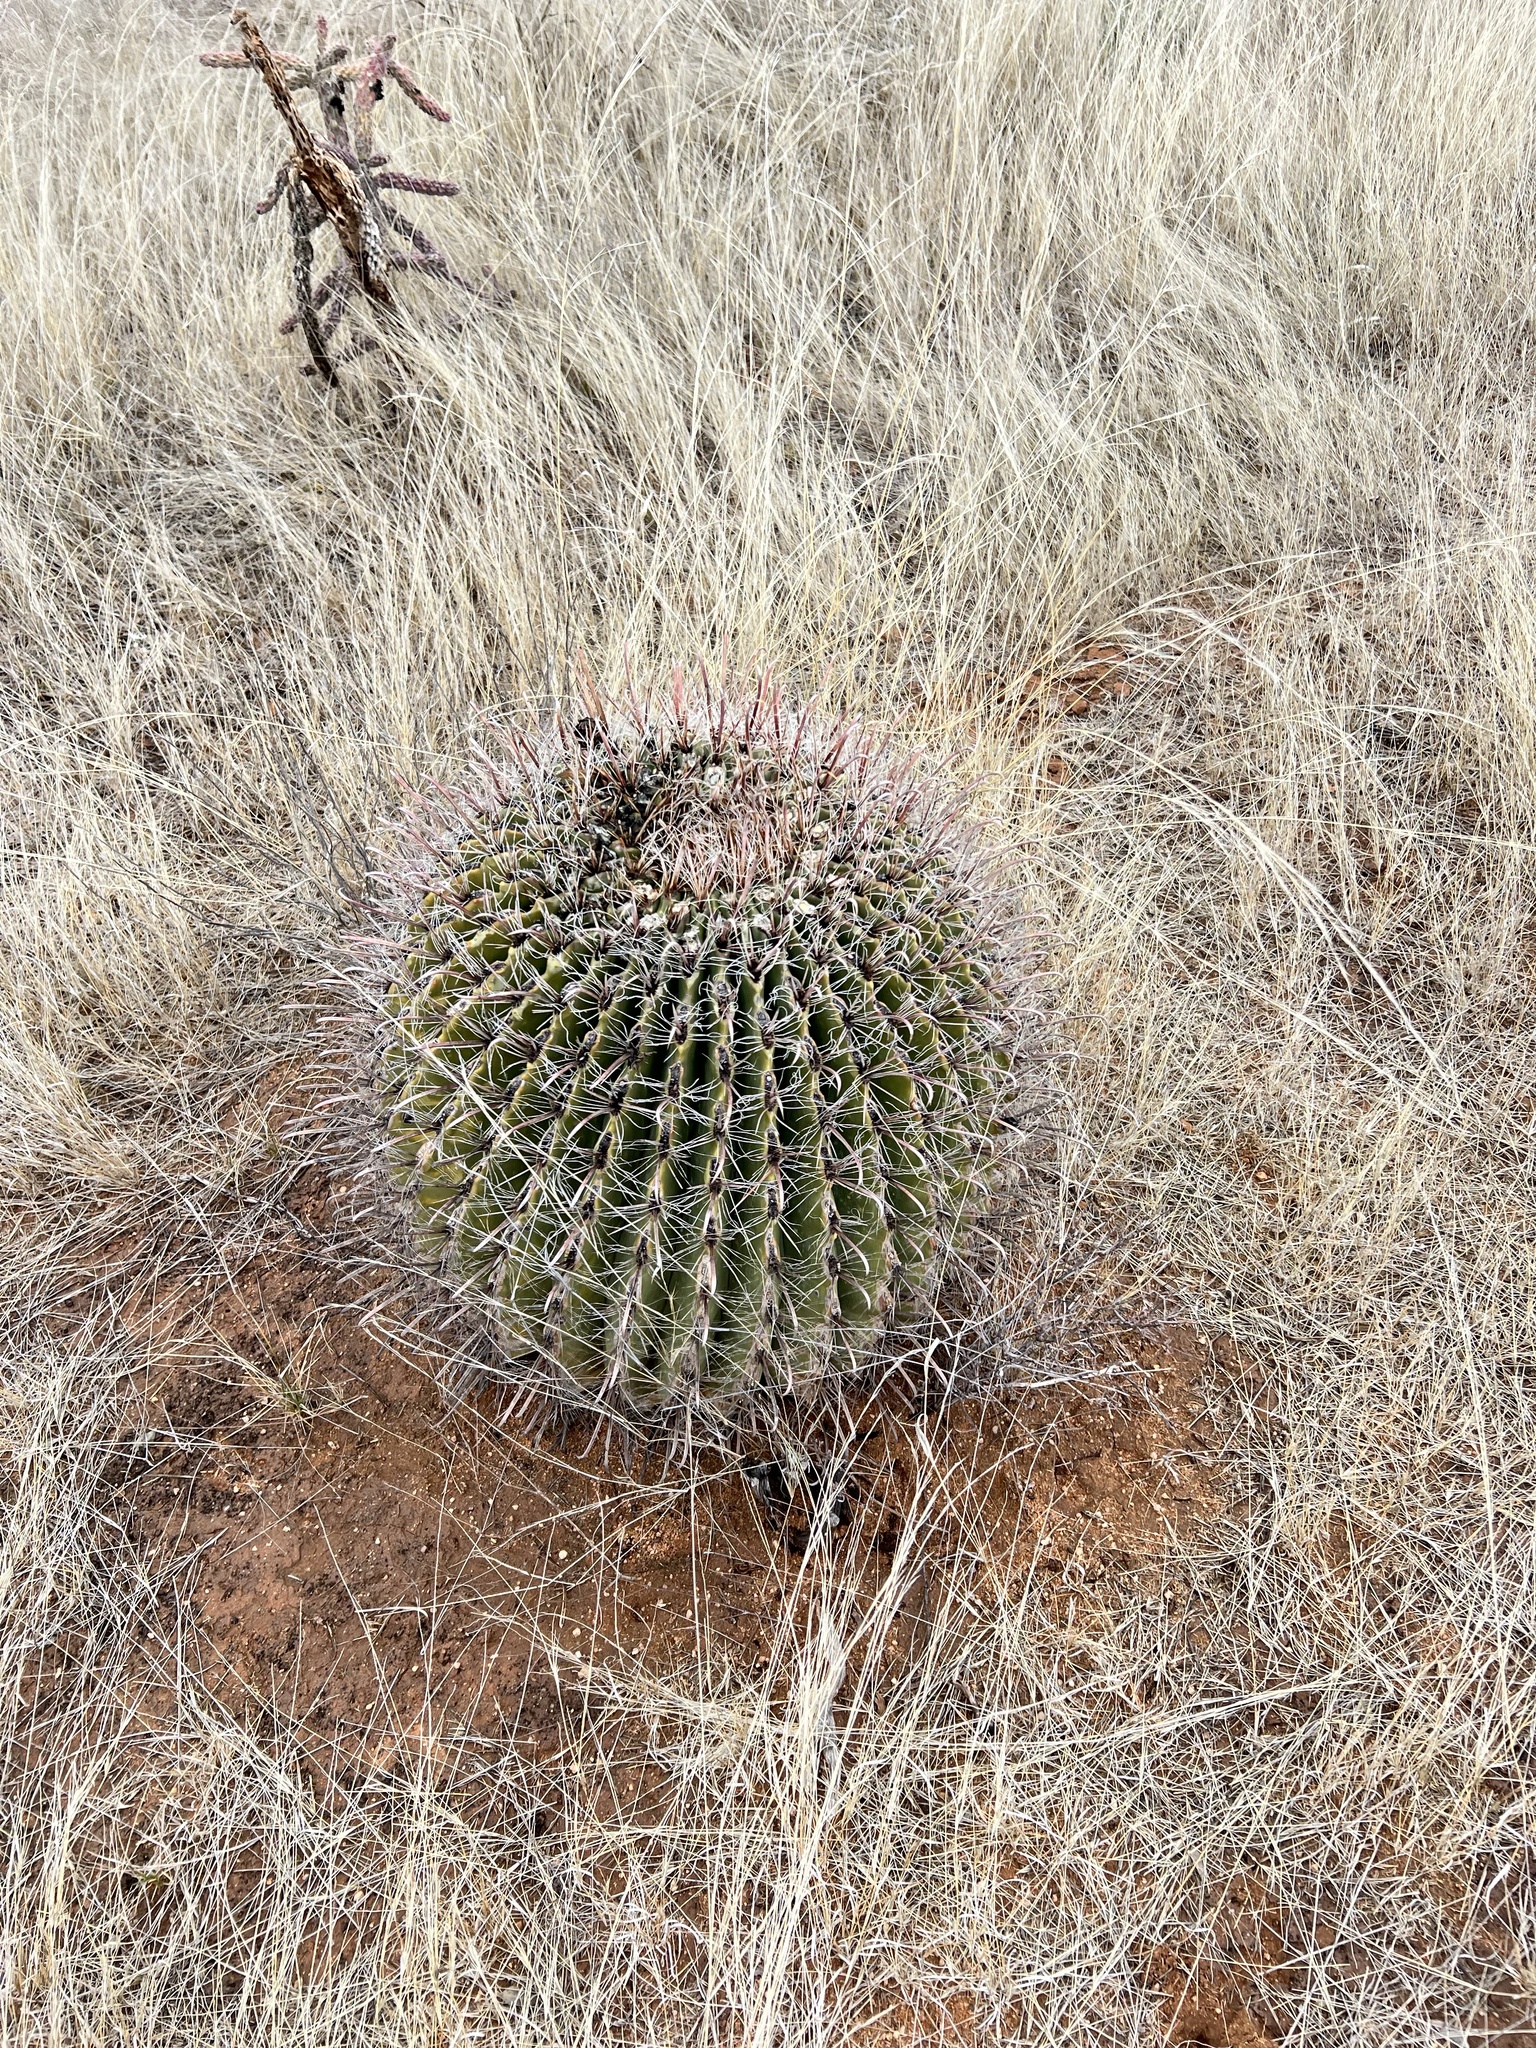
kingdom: Plantae
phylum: Tracheophyta
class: Magnoliopsida
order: Caryophyllales
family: Cactaceae
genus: Ferocactus
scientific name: Ferocactus wislizeni
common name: Candy barrel cactus
